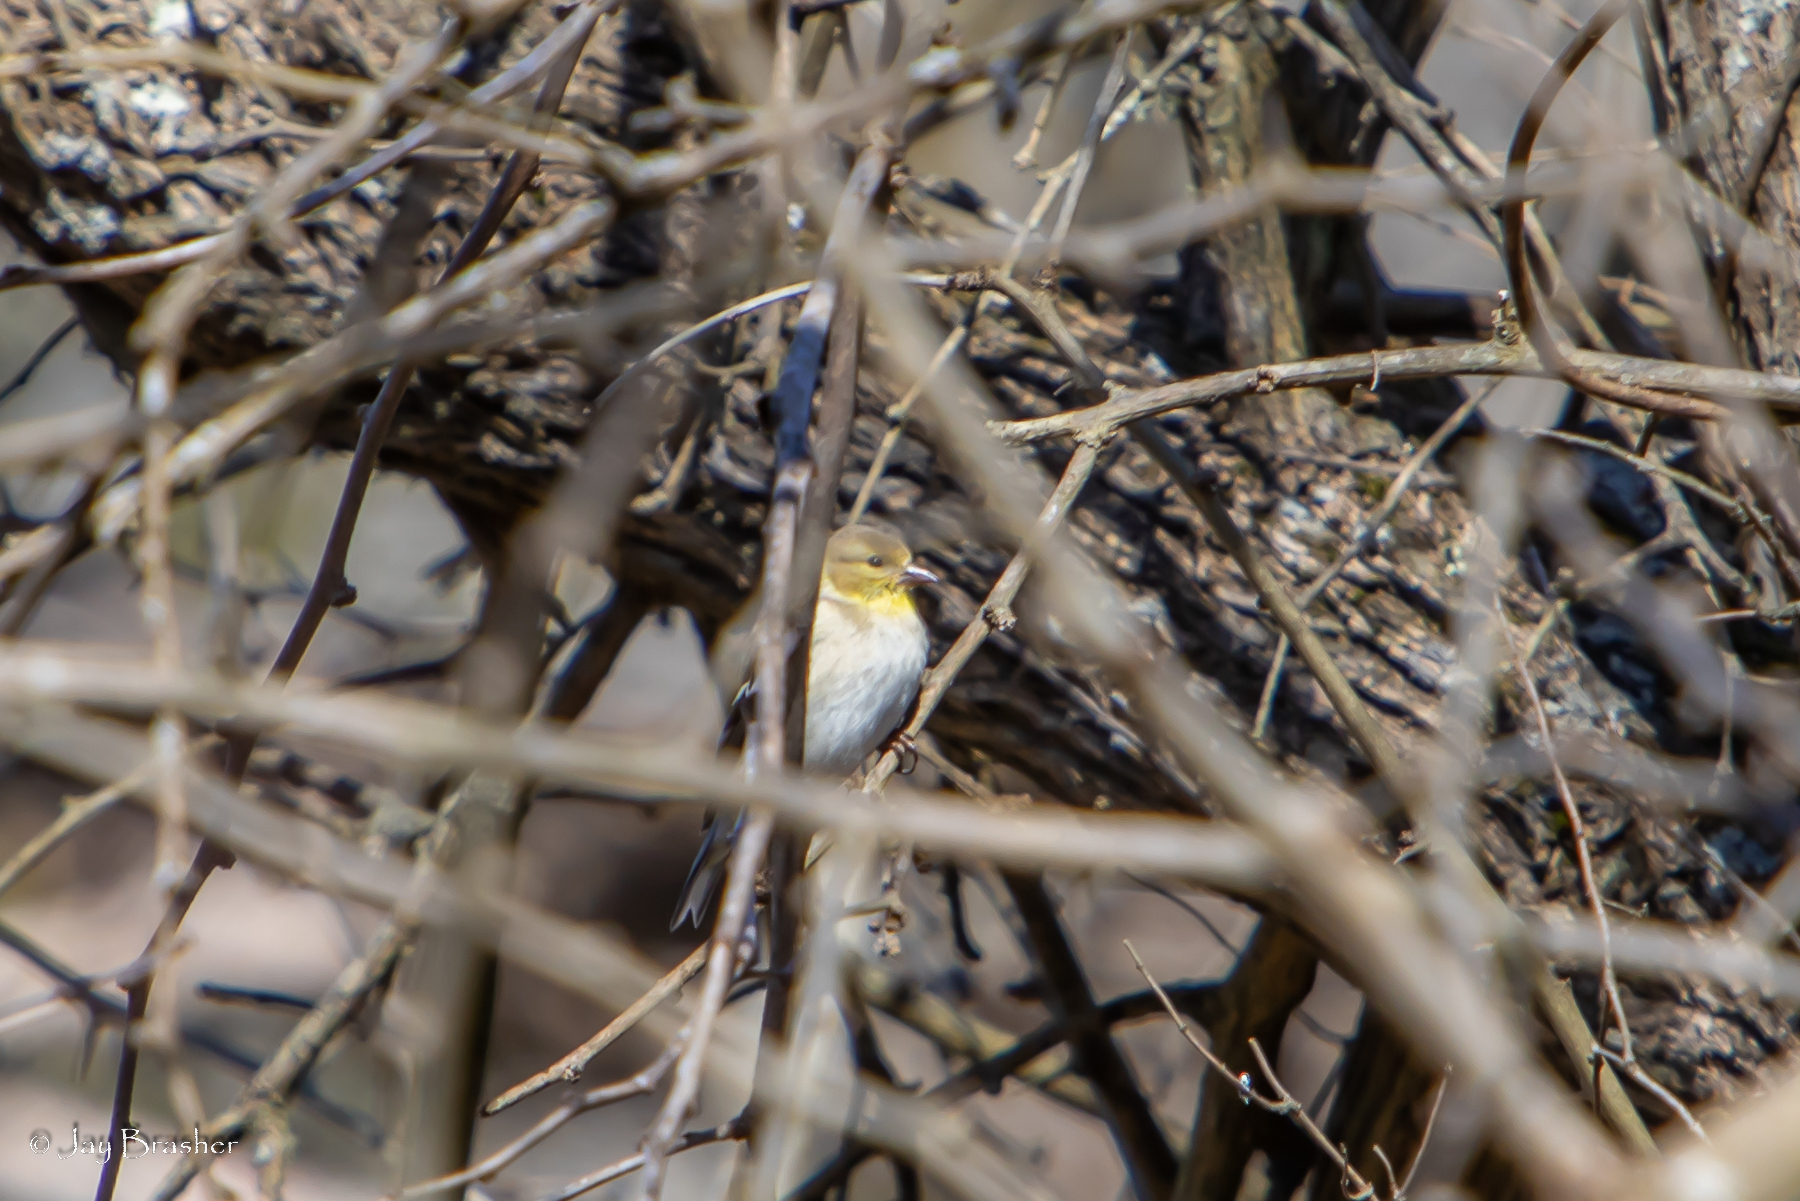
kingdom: Animalia
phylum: Chordata
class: Aves
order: Passeriformes
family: Fringillidae
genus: Spinus
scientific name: Spinus tristis
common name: American goldfinch
